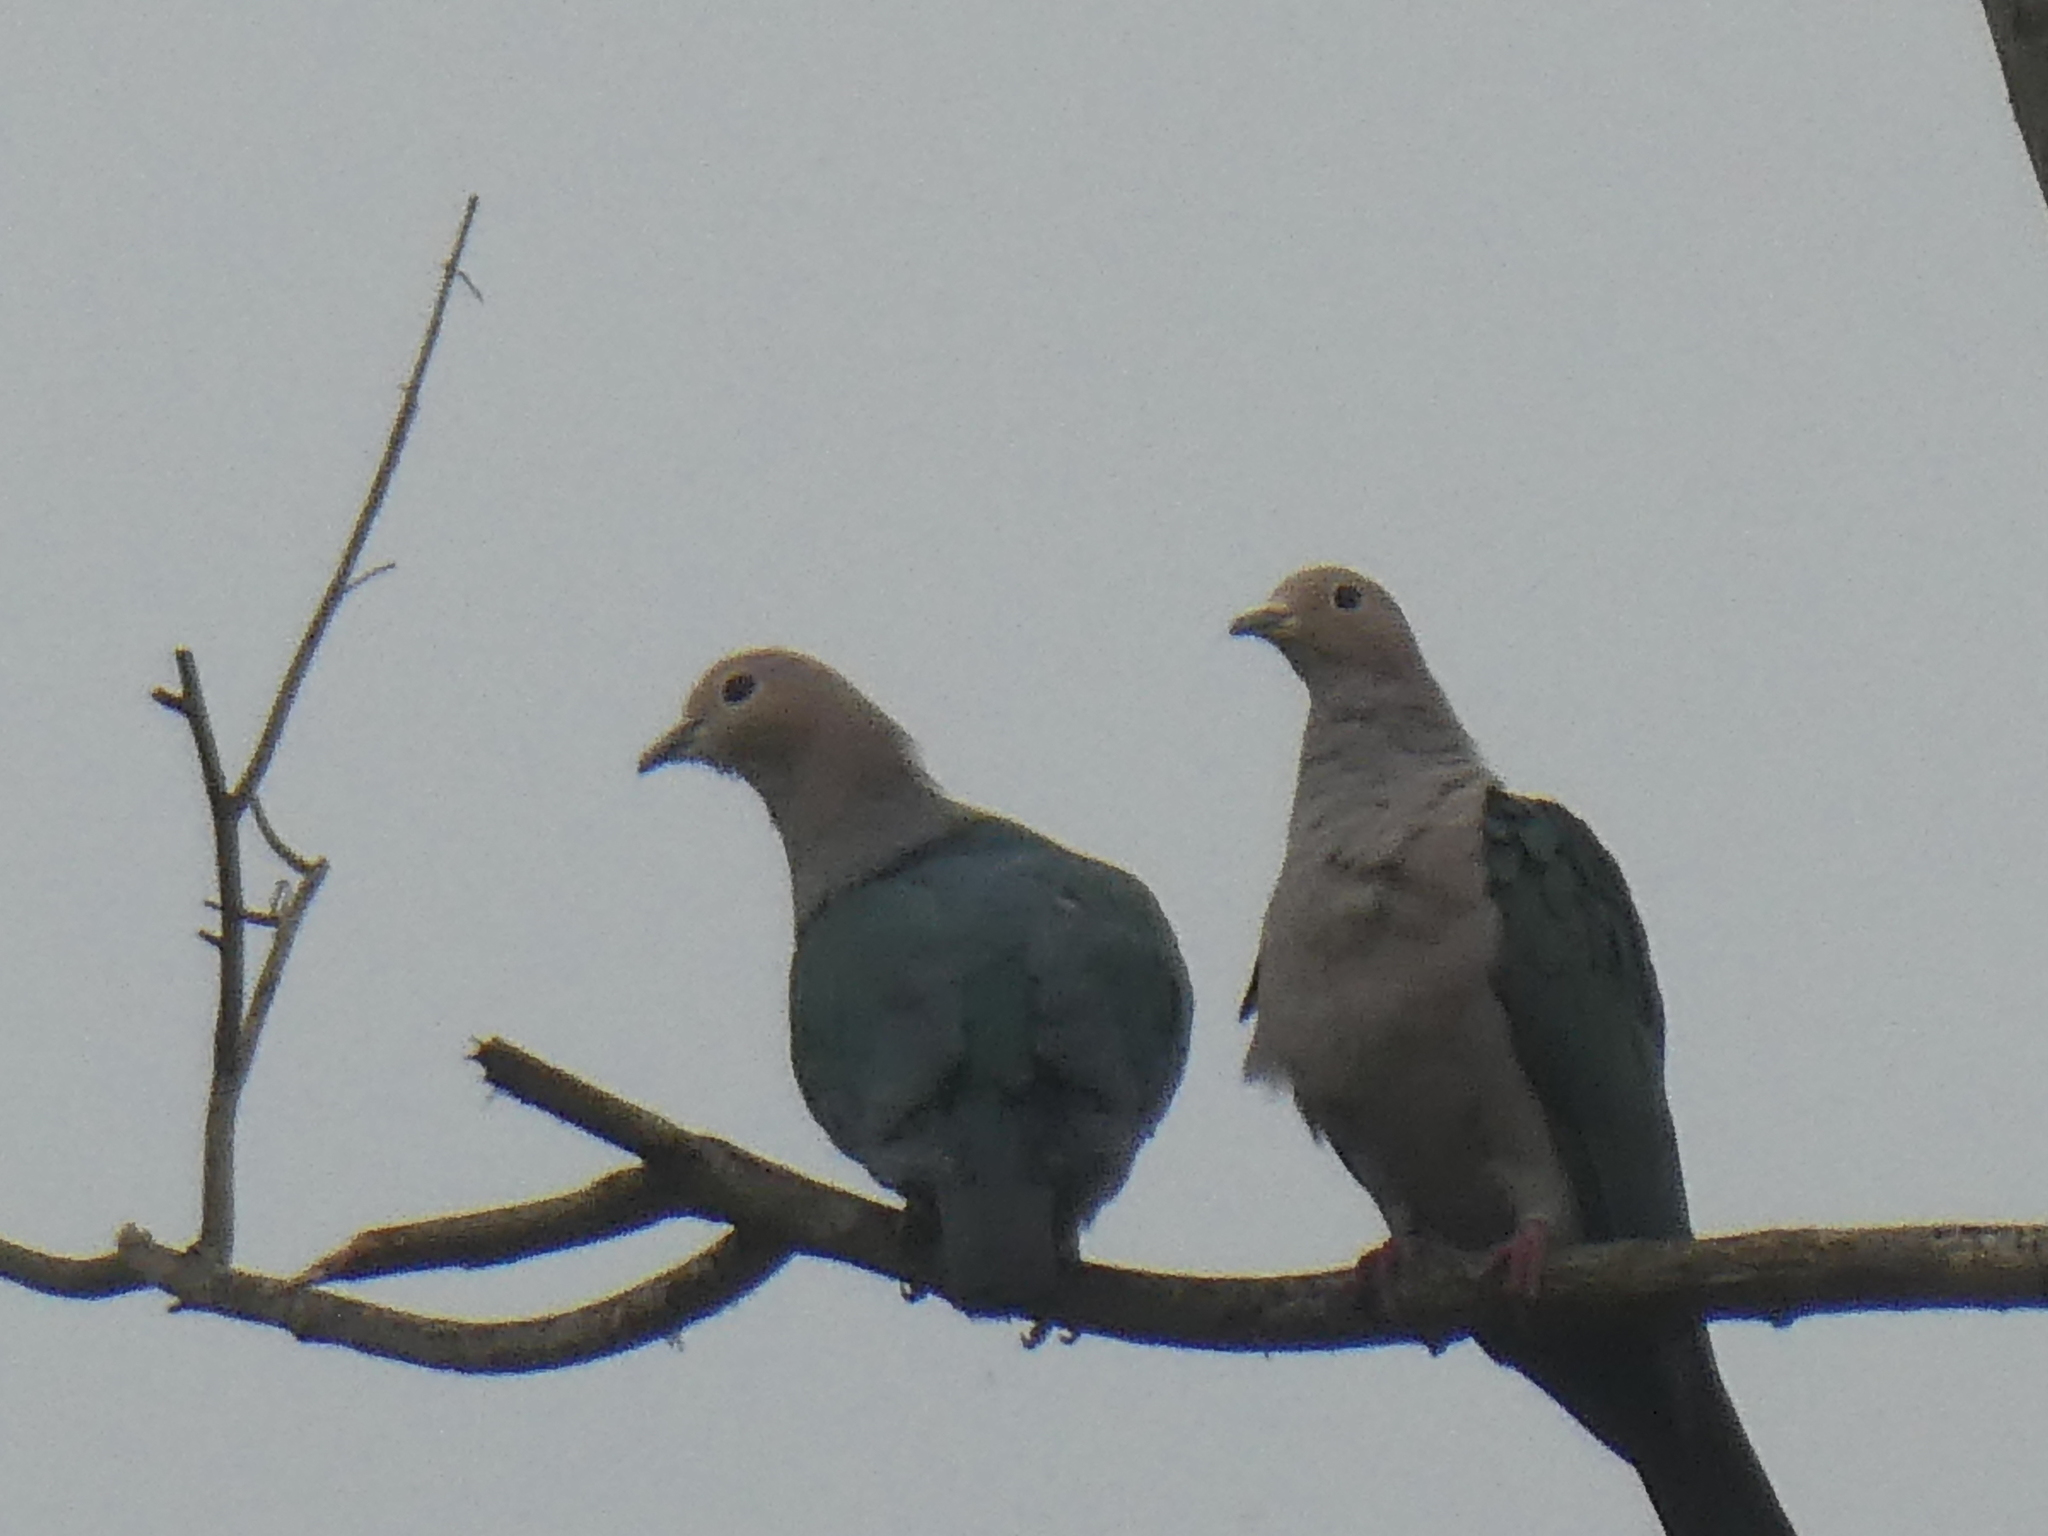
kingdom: Animalia
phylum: Chordata
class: Aves
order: Columbiformes
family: Columbidae
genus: Ducula
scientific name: Ducula aenea
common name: Green imperial pigeon
